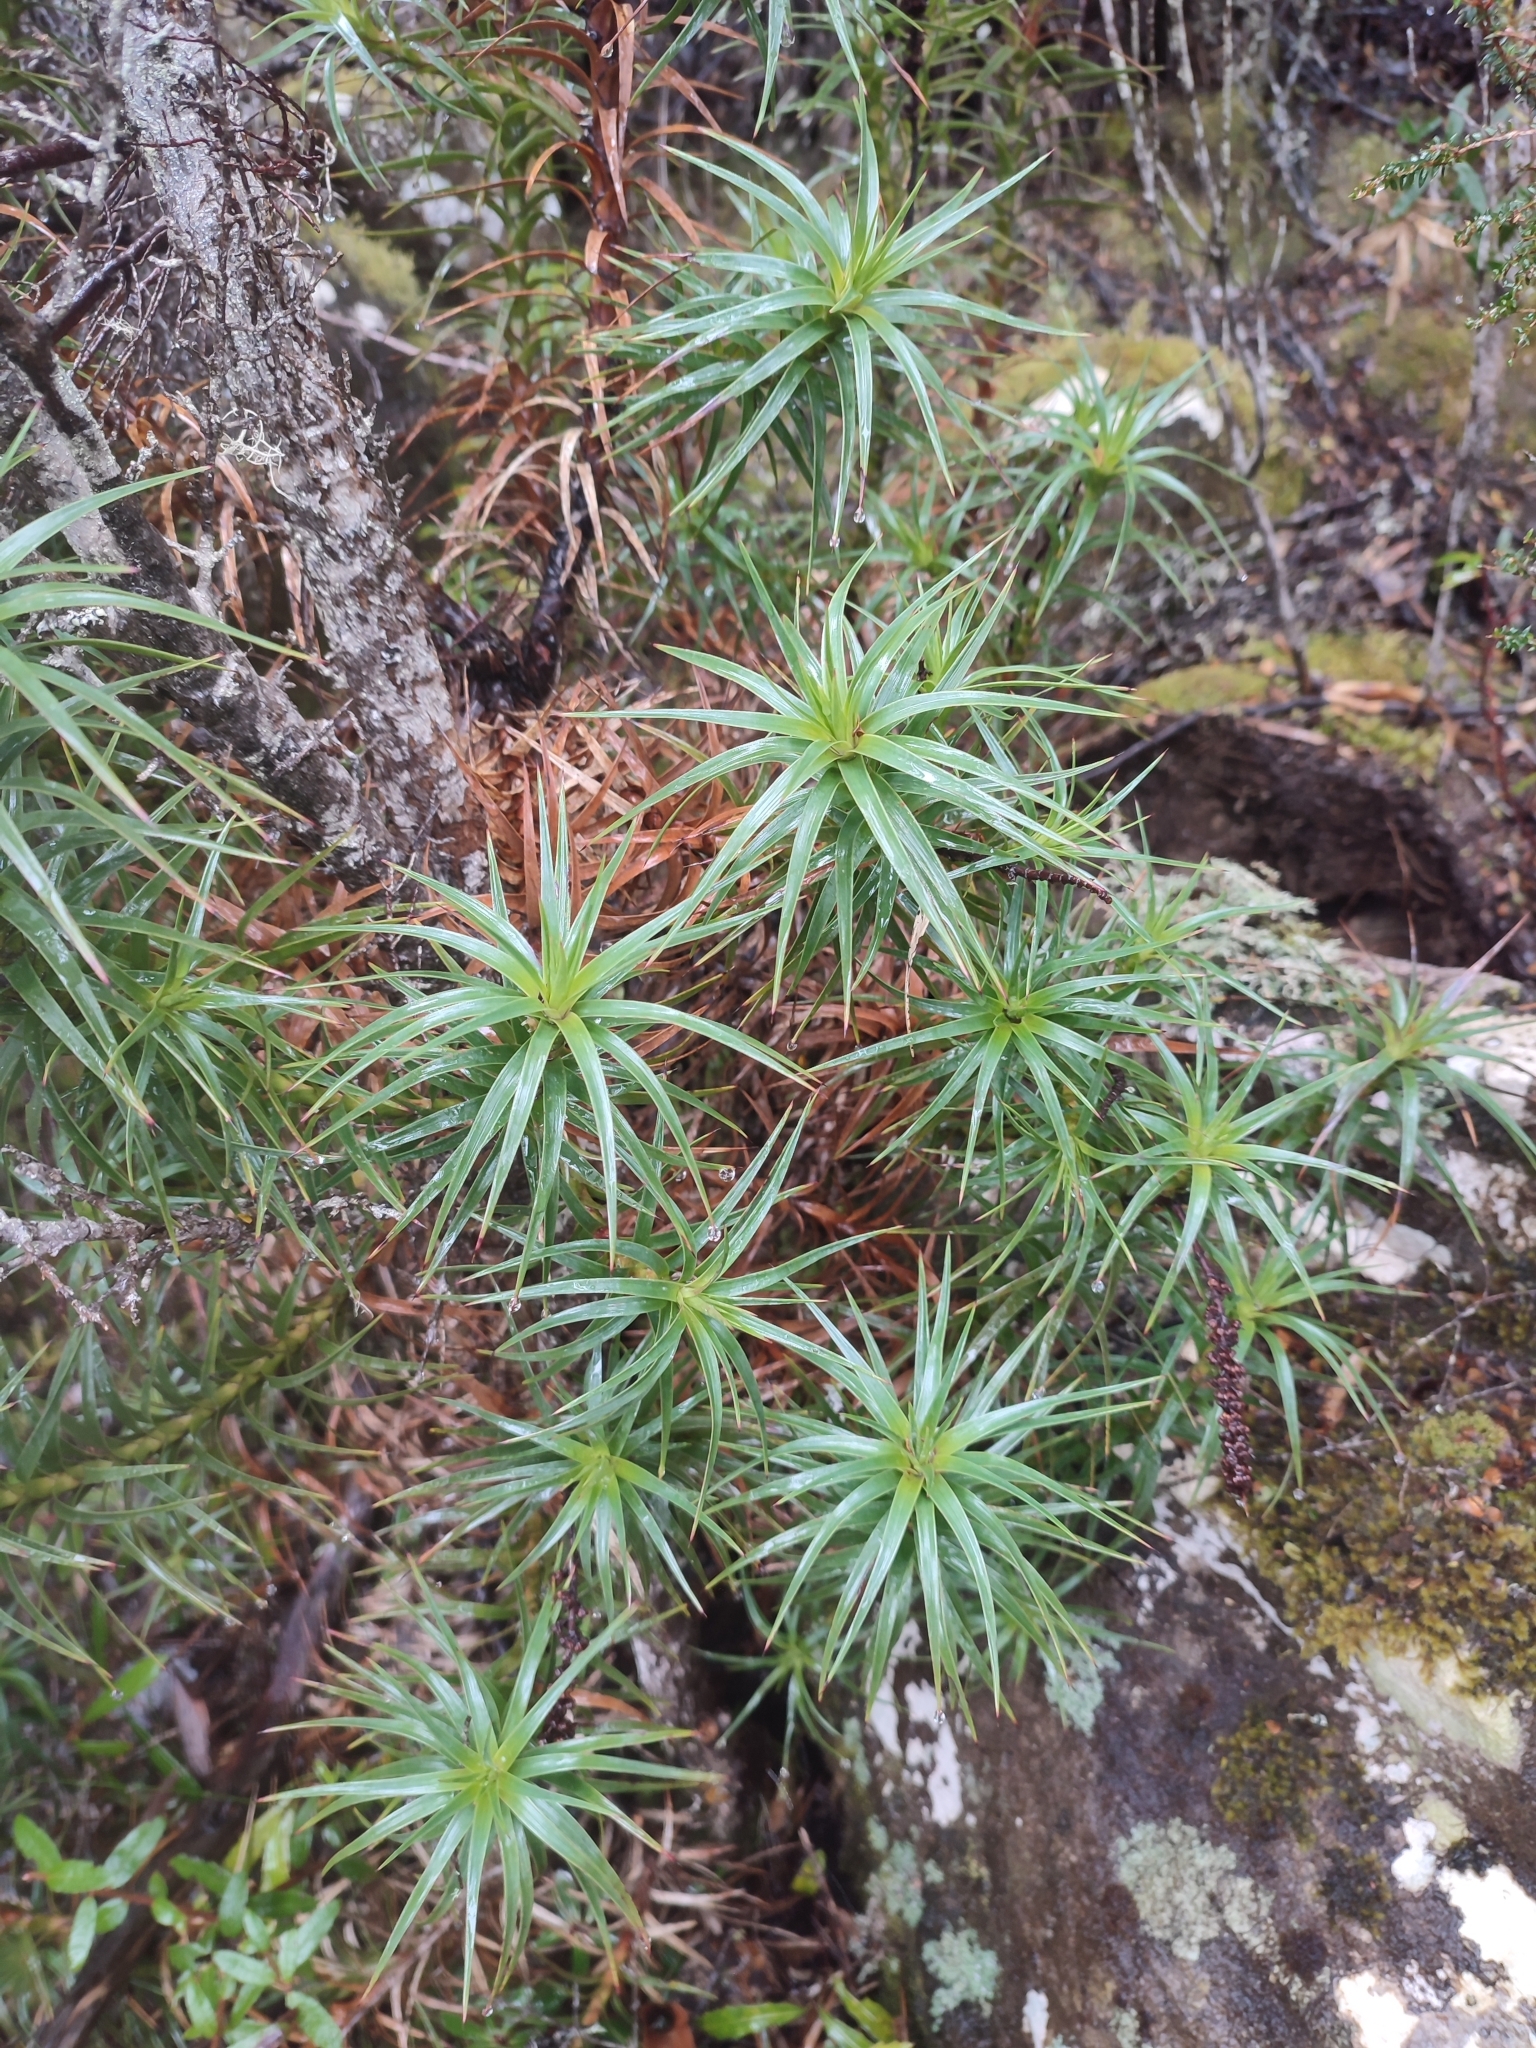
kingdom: Plantae
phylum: Tracheophyta
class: Magnoliopsida
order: Ericales
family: Ericaceae
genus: Dracophyllum
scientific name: Dracophyllum persistentifolium
